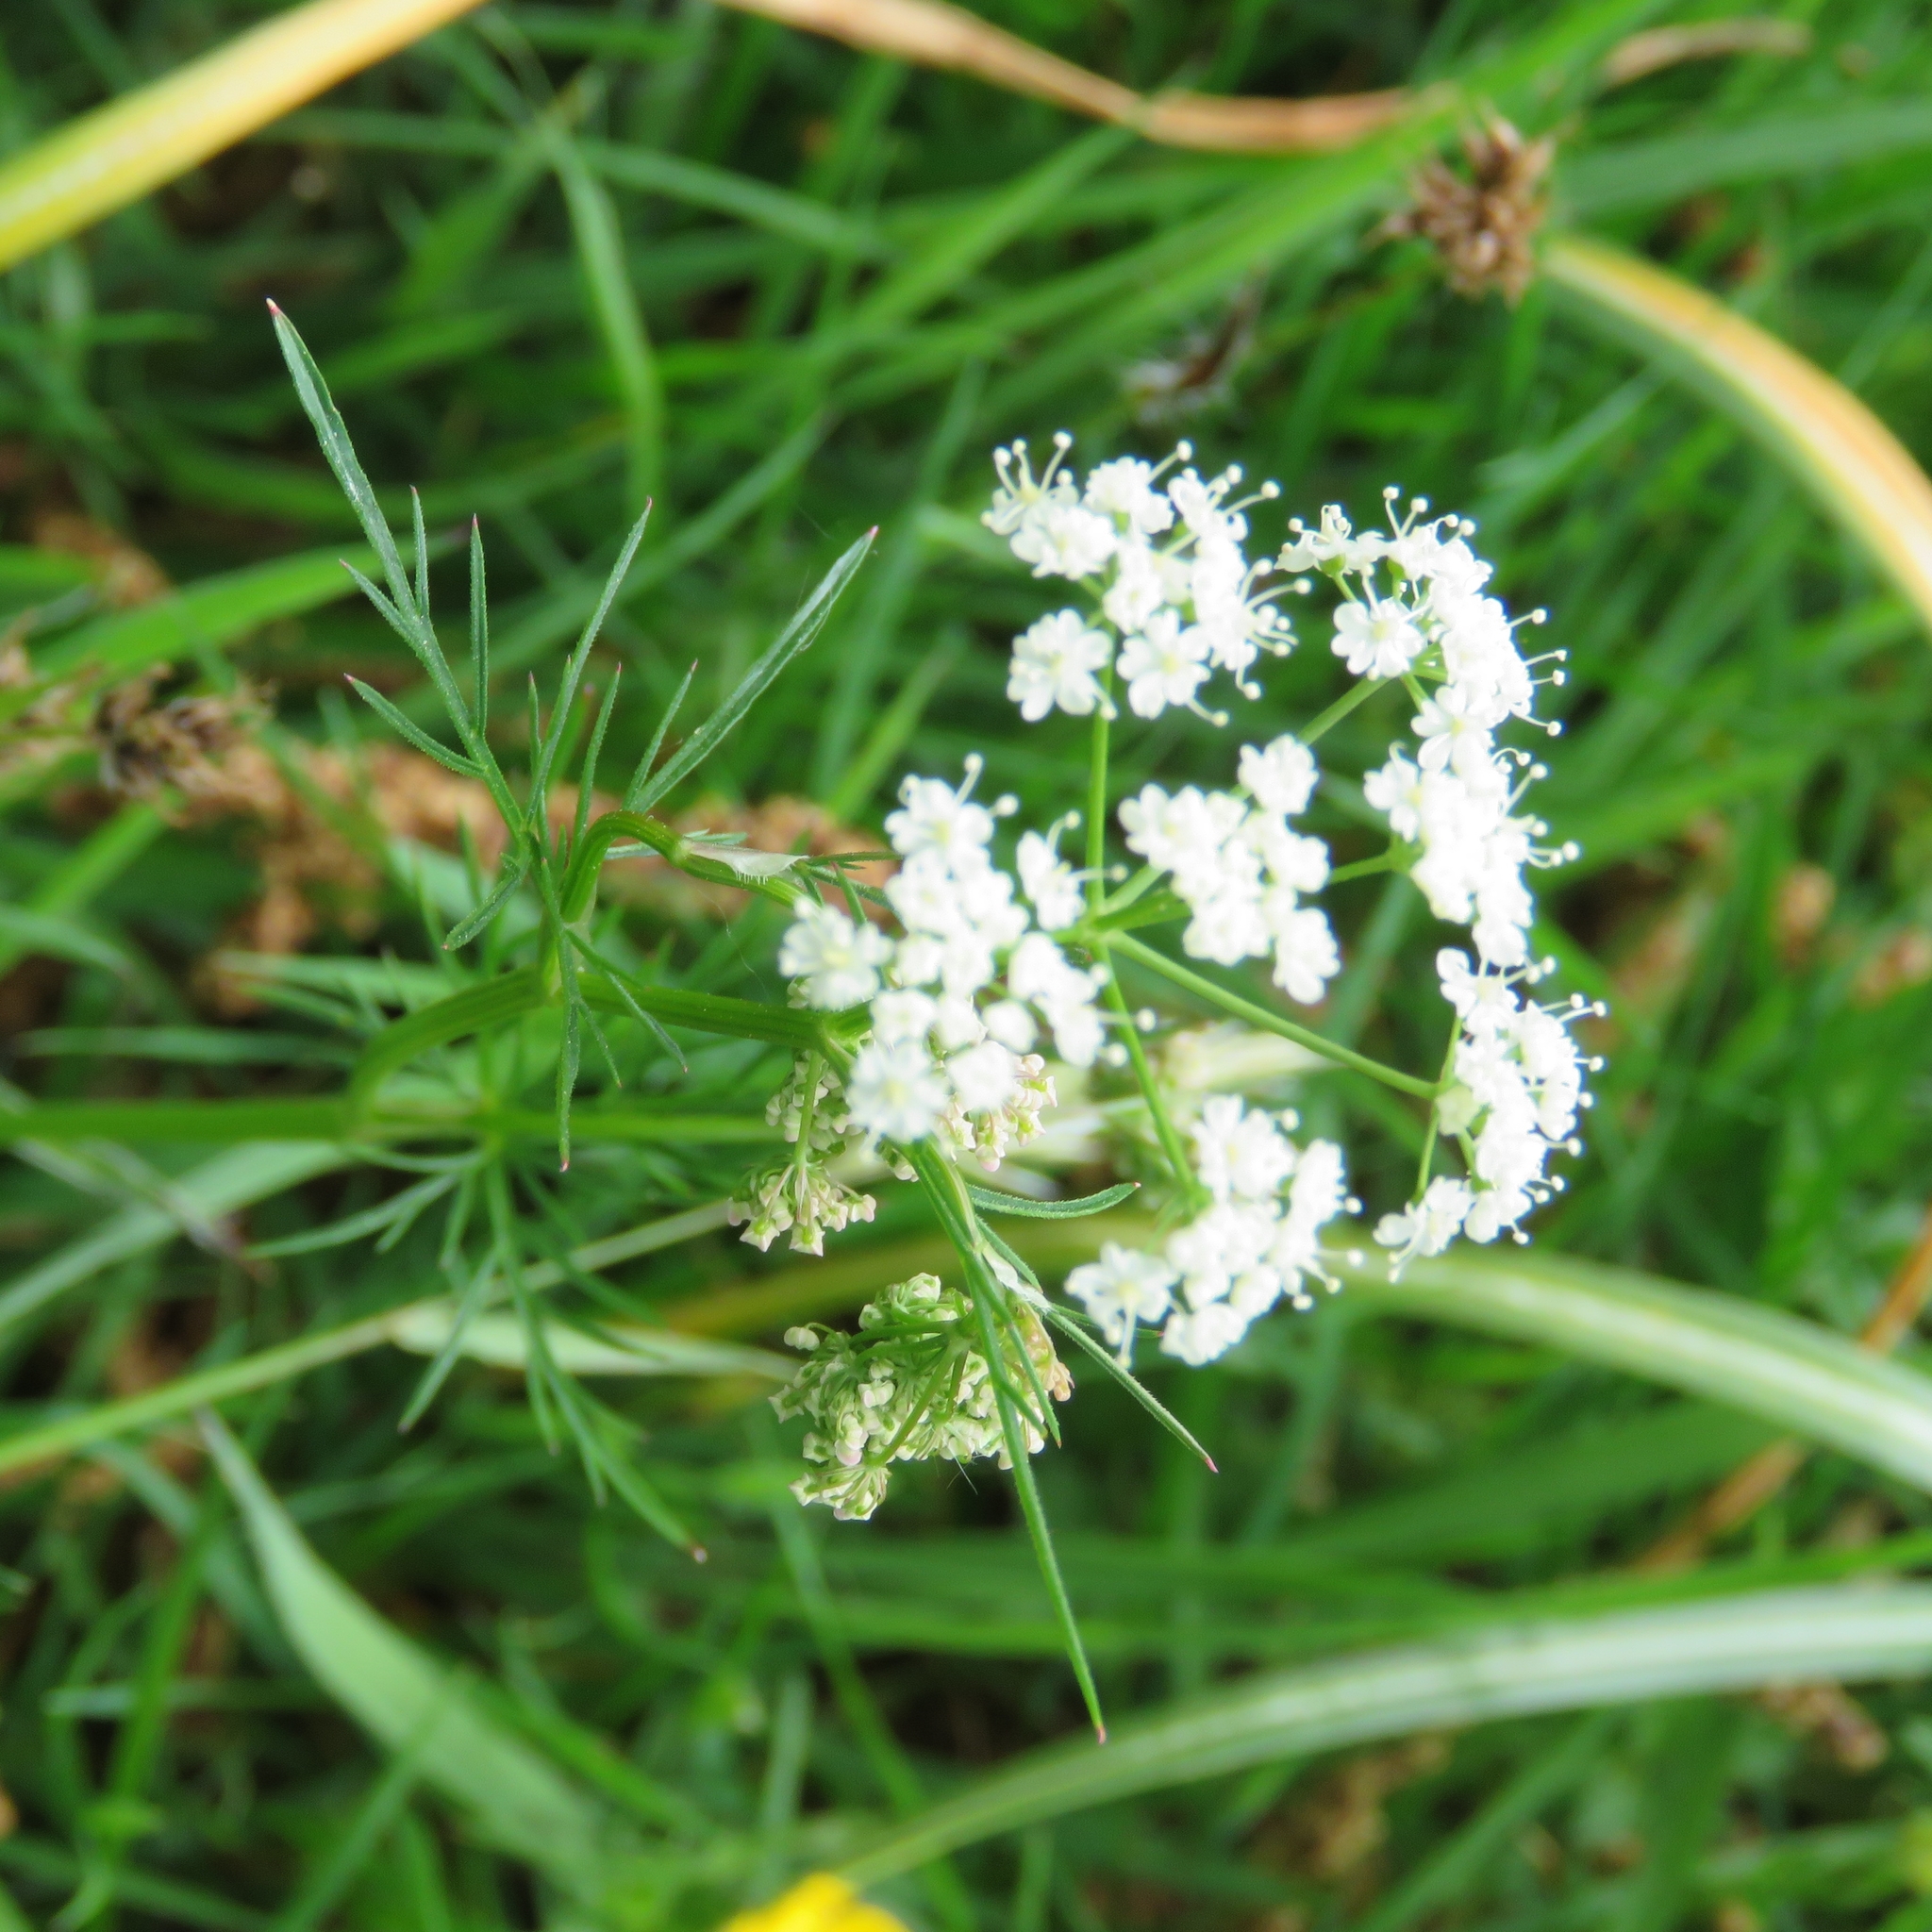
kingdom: Plantae
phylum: Tracheophyta
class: Magnoliopsida
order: Apiales
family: Apiaceae
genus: Conopodium
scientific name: Conopodium majus
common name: Pignut
